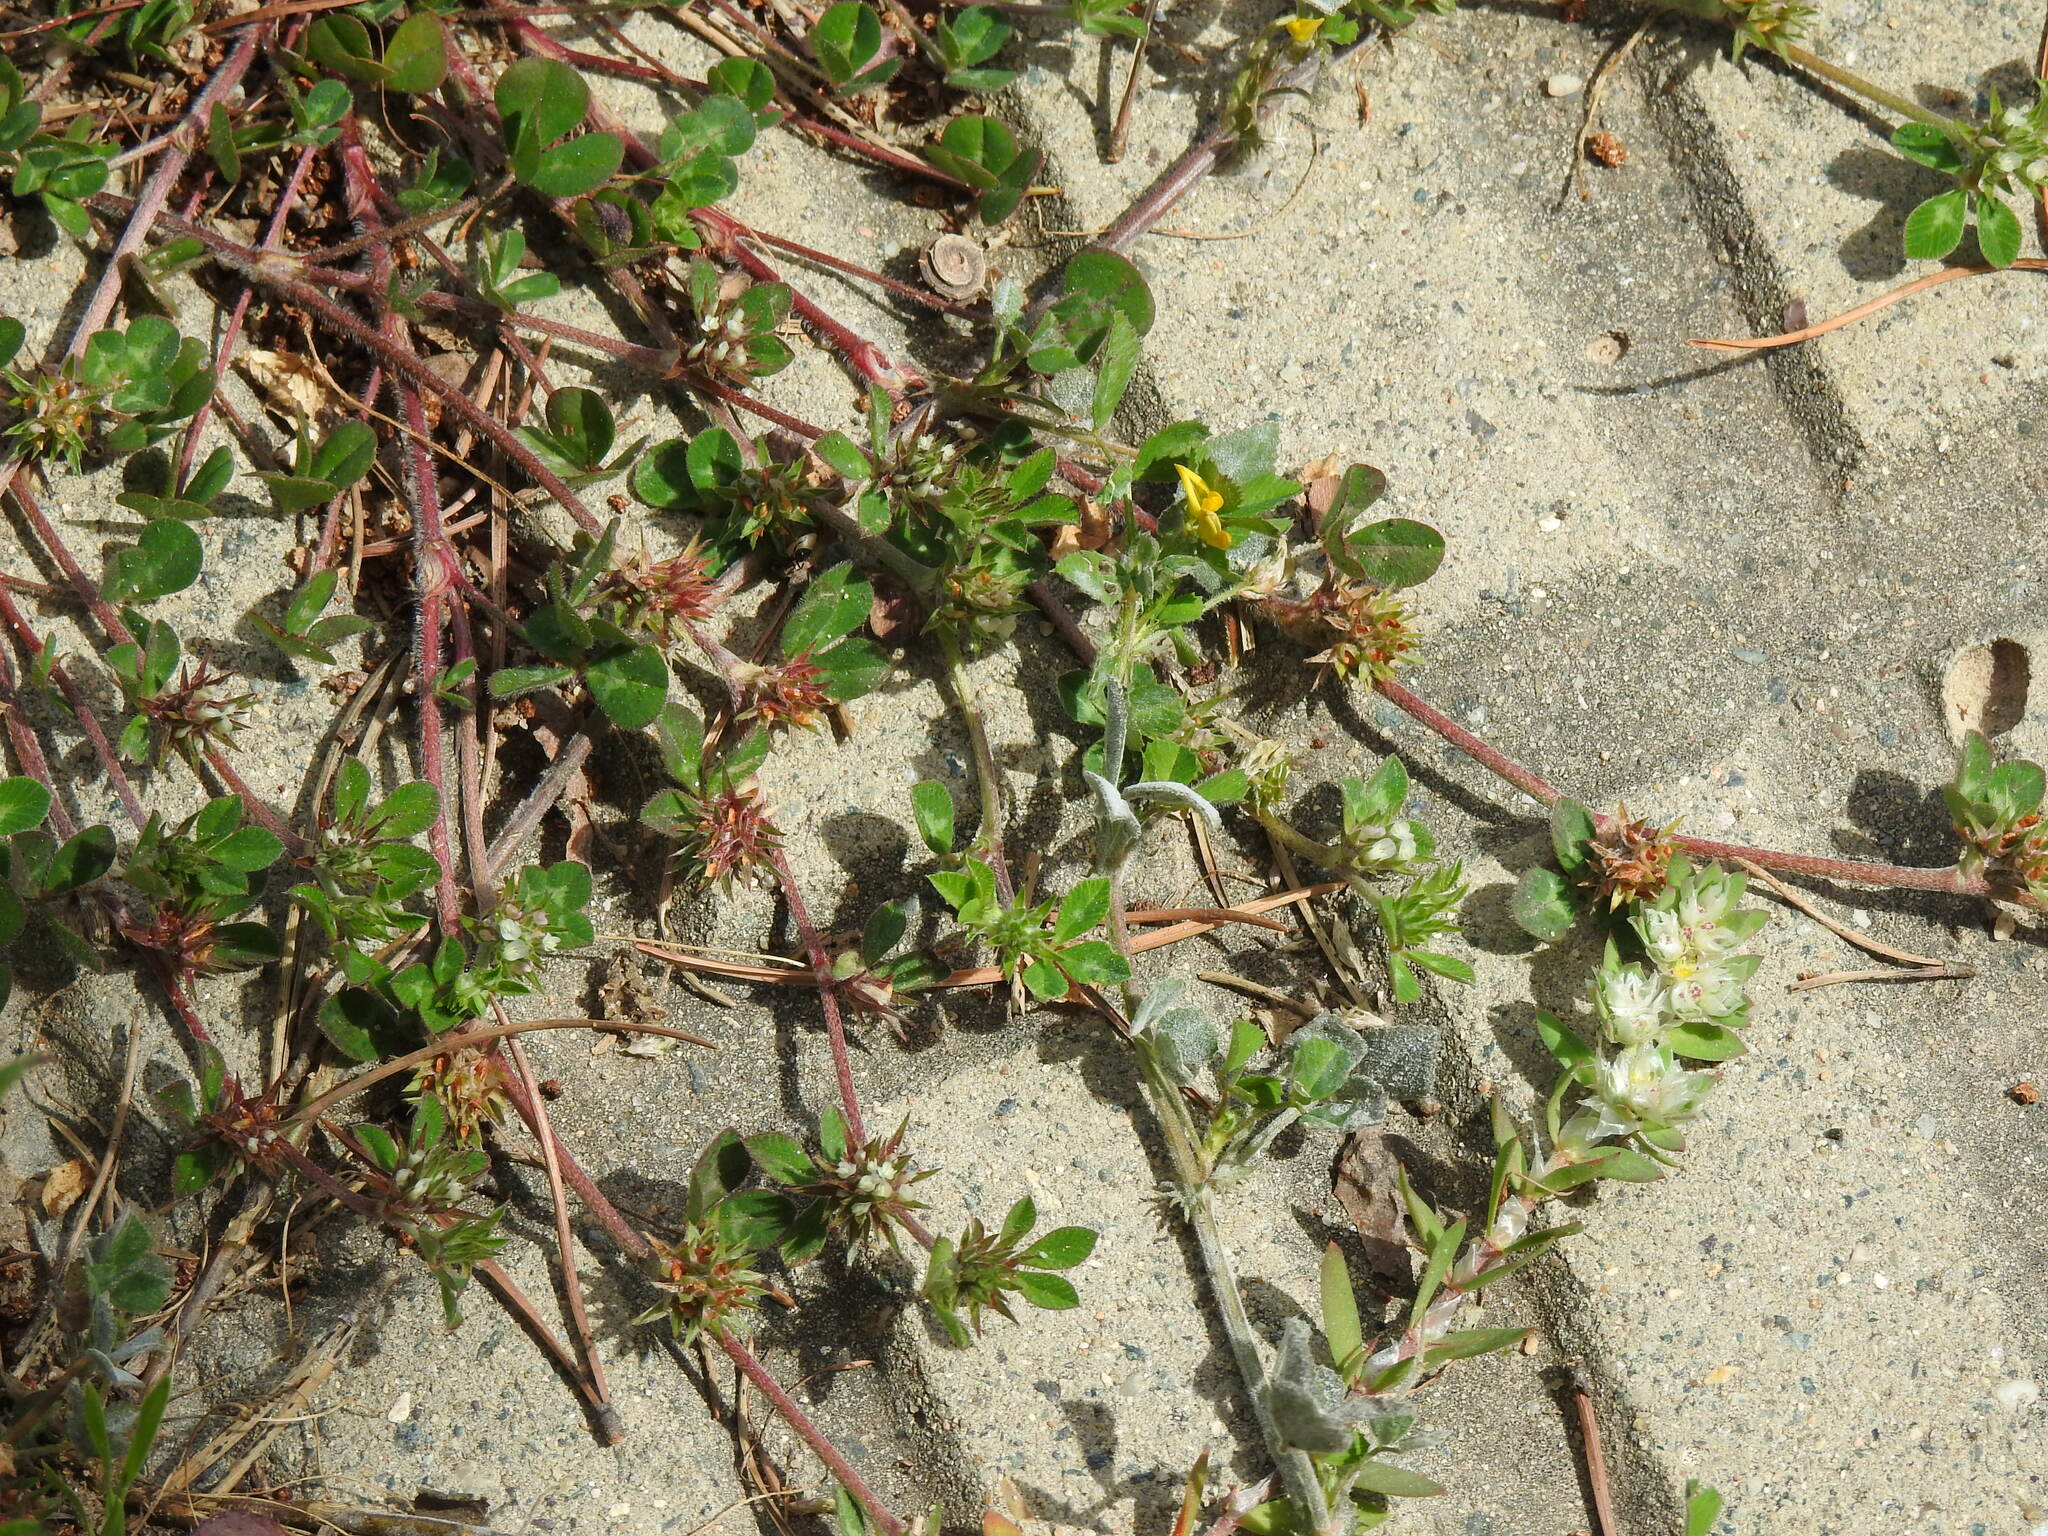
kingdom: Plantae
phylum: Tracheophyta
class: Magnoliopsida
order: Fabales
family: Fabaceae
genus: Trifolium
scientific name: Trifolium scabrum
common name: Rough clover
